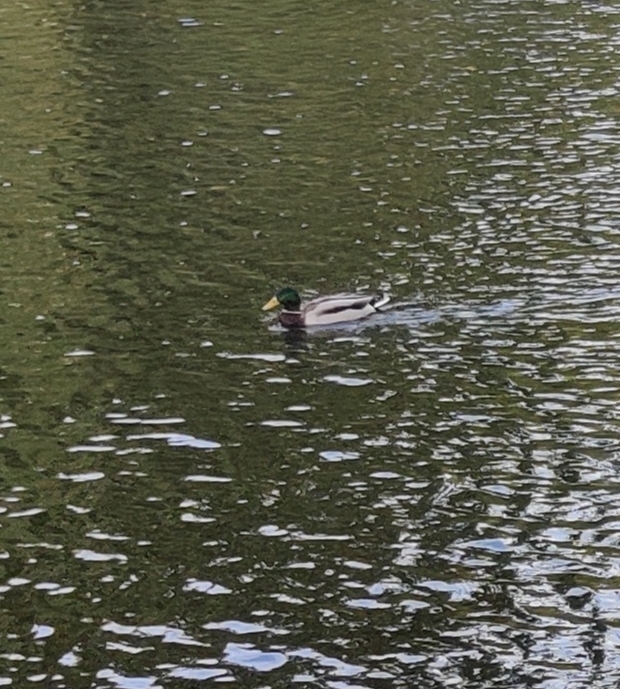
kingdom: Animalia
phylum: Chordata
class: Aves
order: Anseriformes
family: Anatidae
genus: Anas
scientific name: Anas platyrhynchos
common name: Mallard
